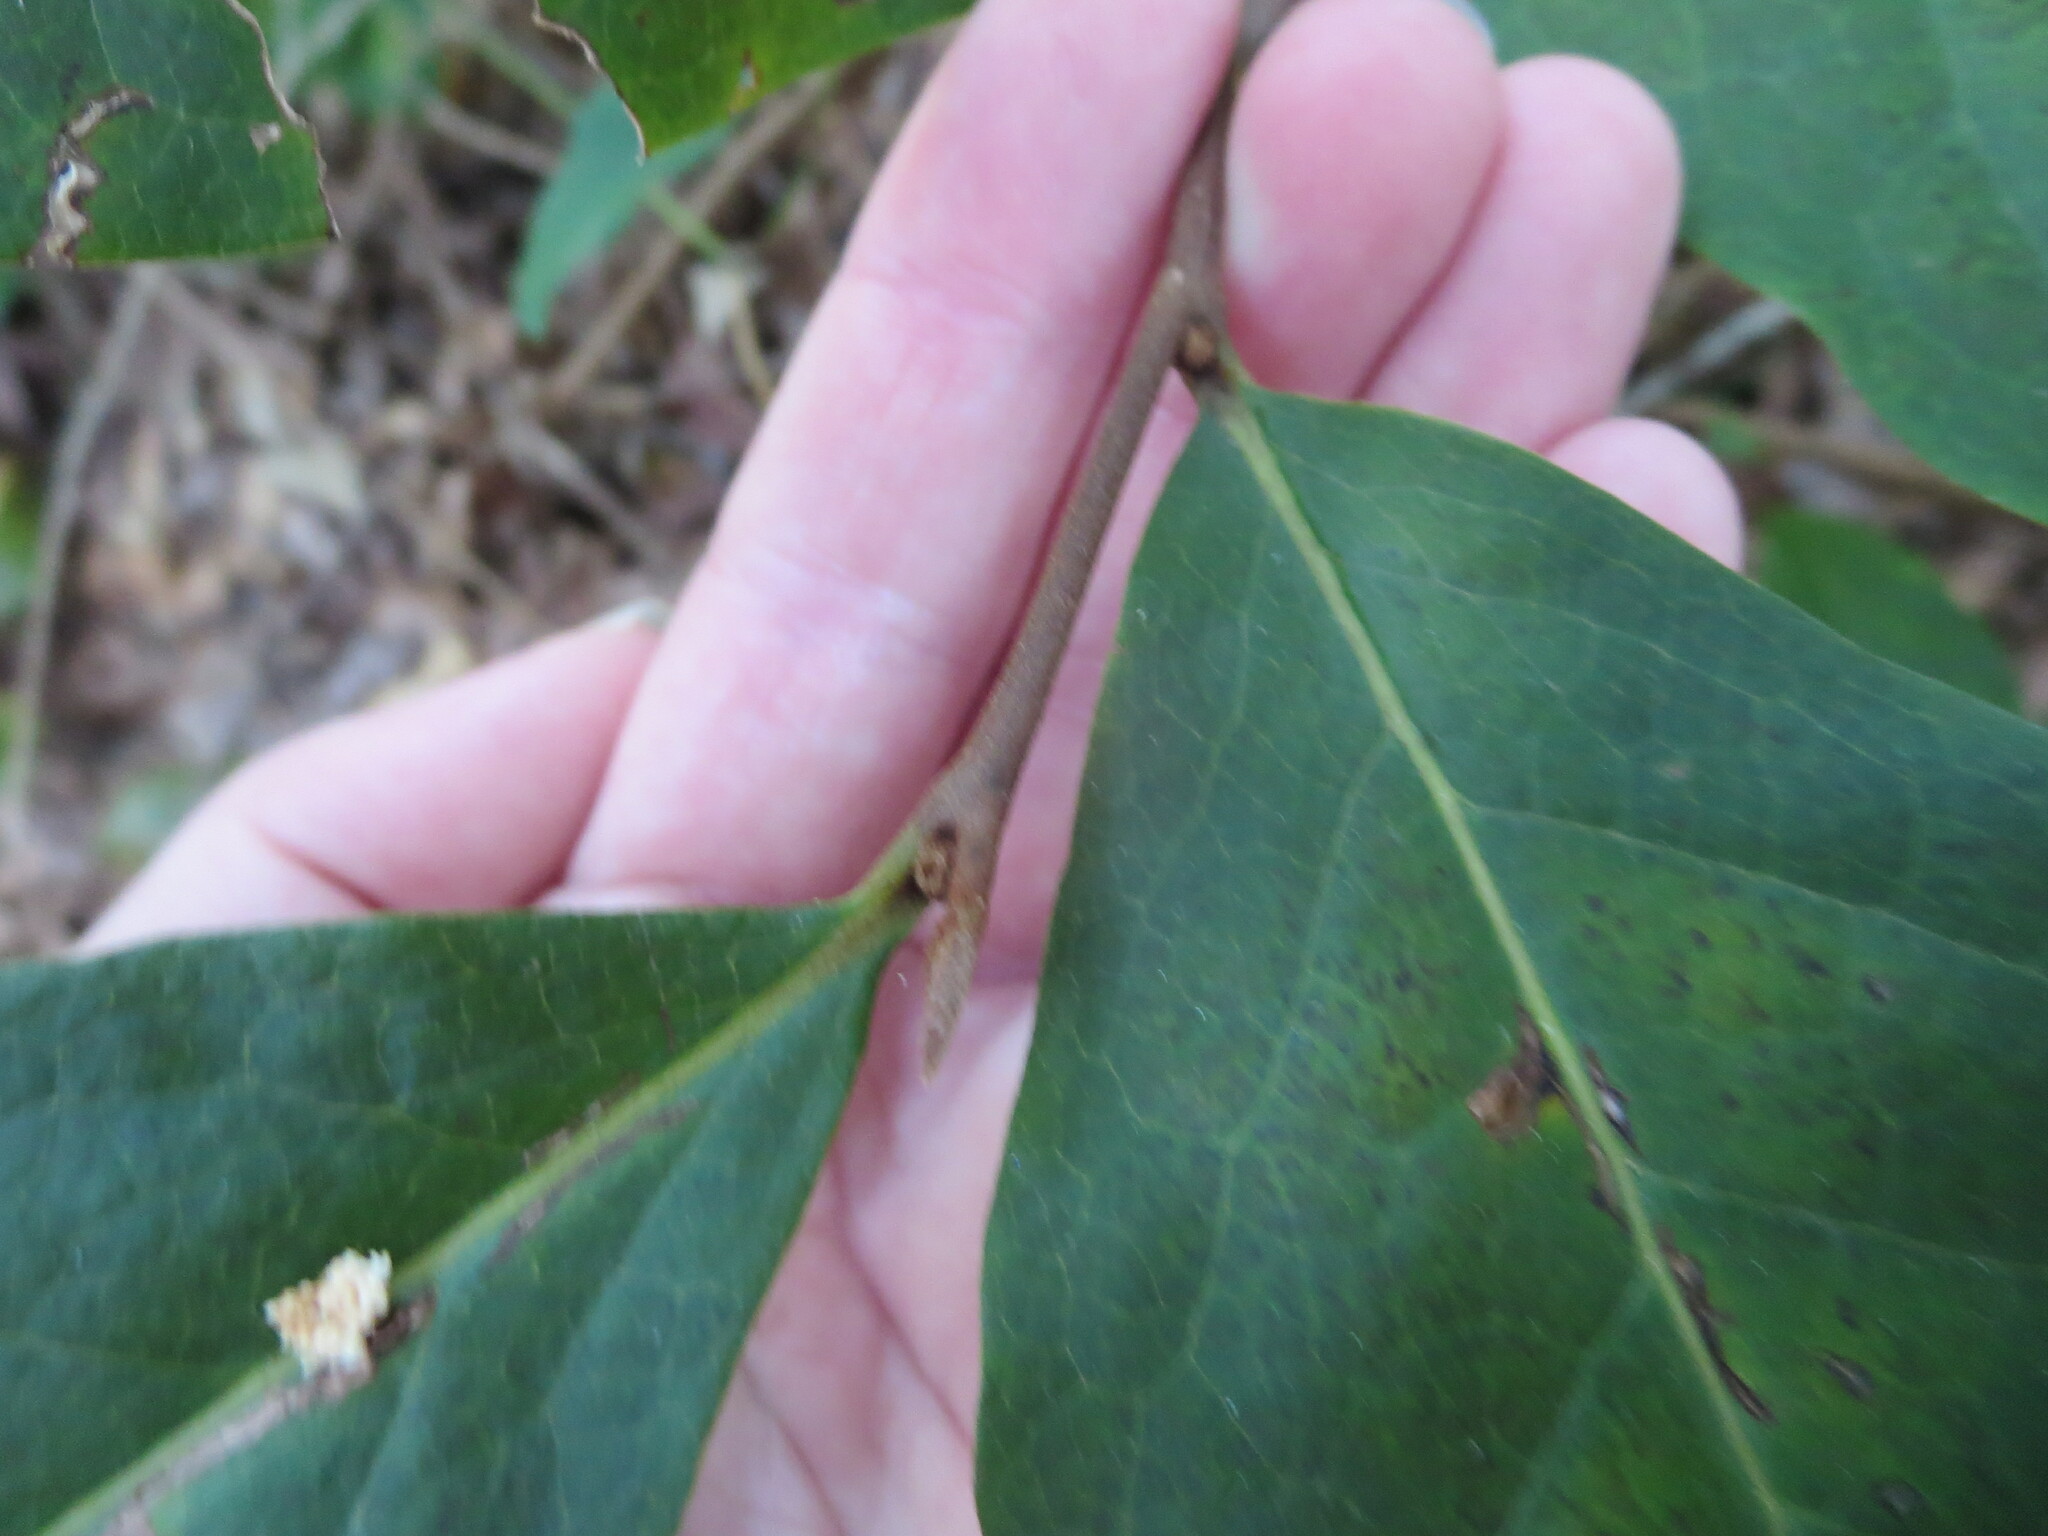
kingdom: Plantae
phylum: Tracheophyta
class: Magnoliopsida
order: Magnoliales
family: Annonaceae
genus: Asimina
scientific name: Asimina parviflora
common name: Dwarf pawpaw
